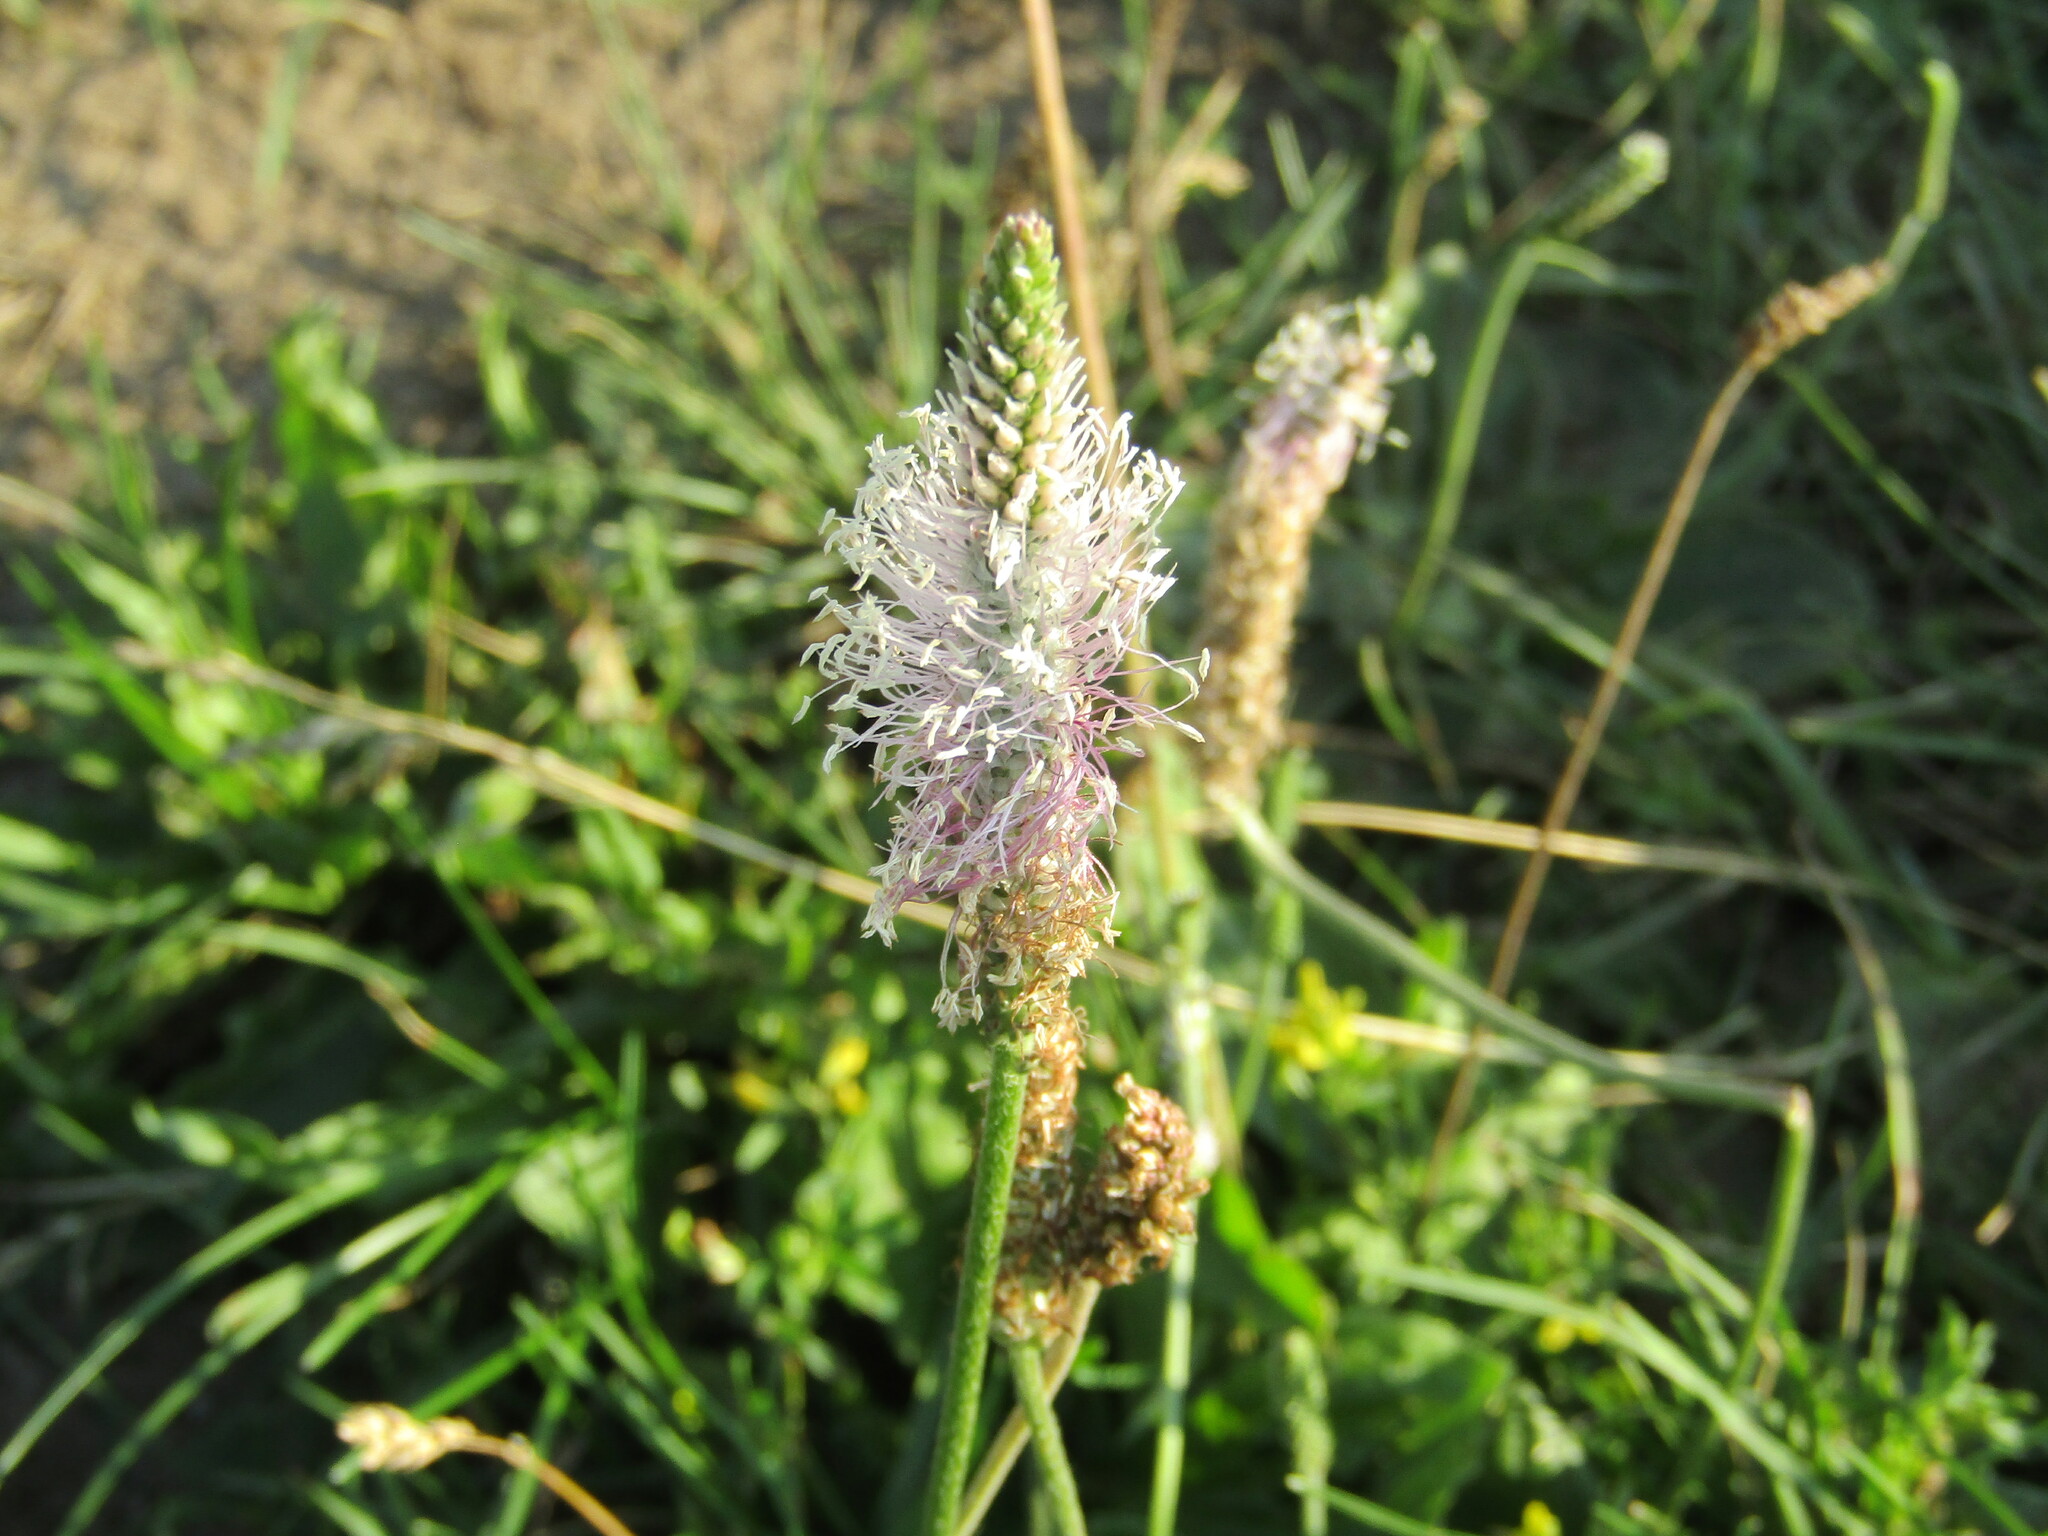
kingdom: Plantae
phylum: Tracheophyta
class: Magnoliopsida
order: Lamiales
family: Plantaginaceae
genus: Plantago
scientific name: Plantago media
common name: Hoary plantain
